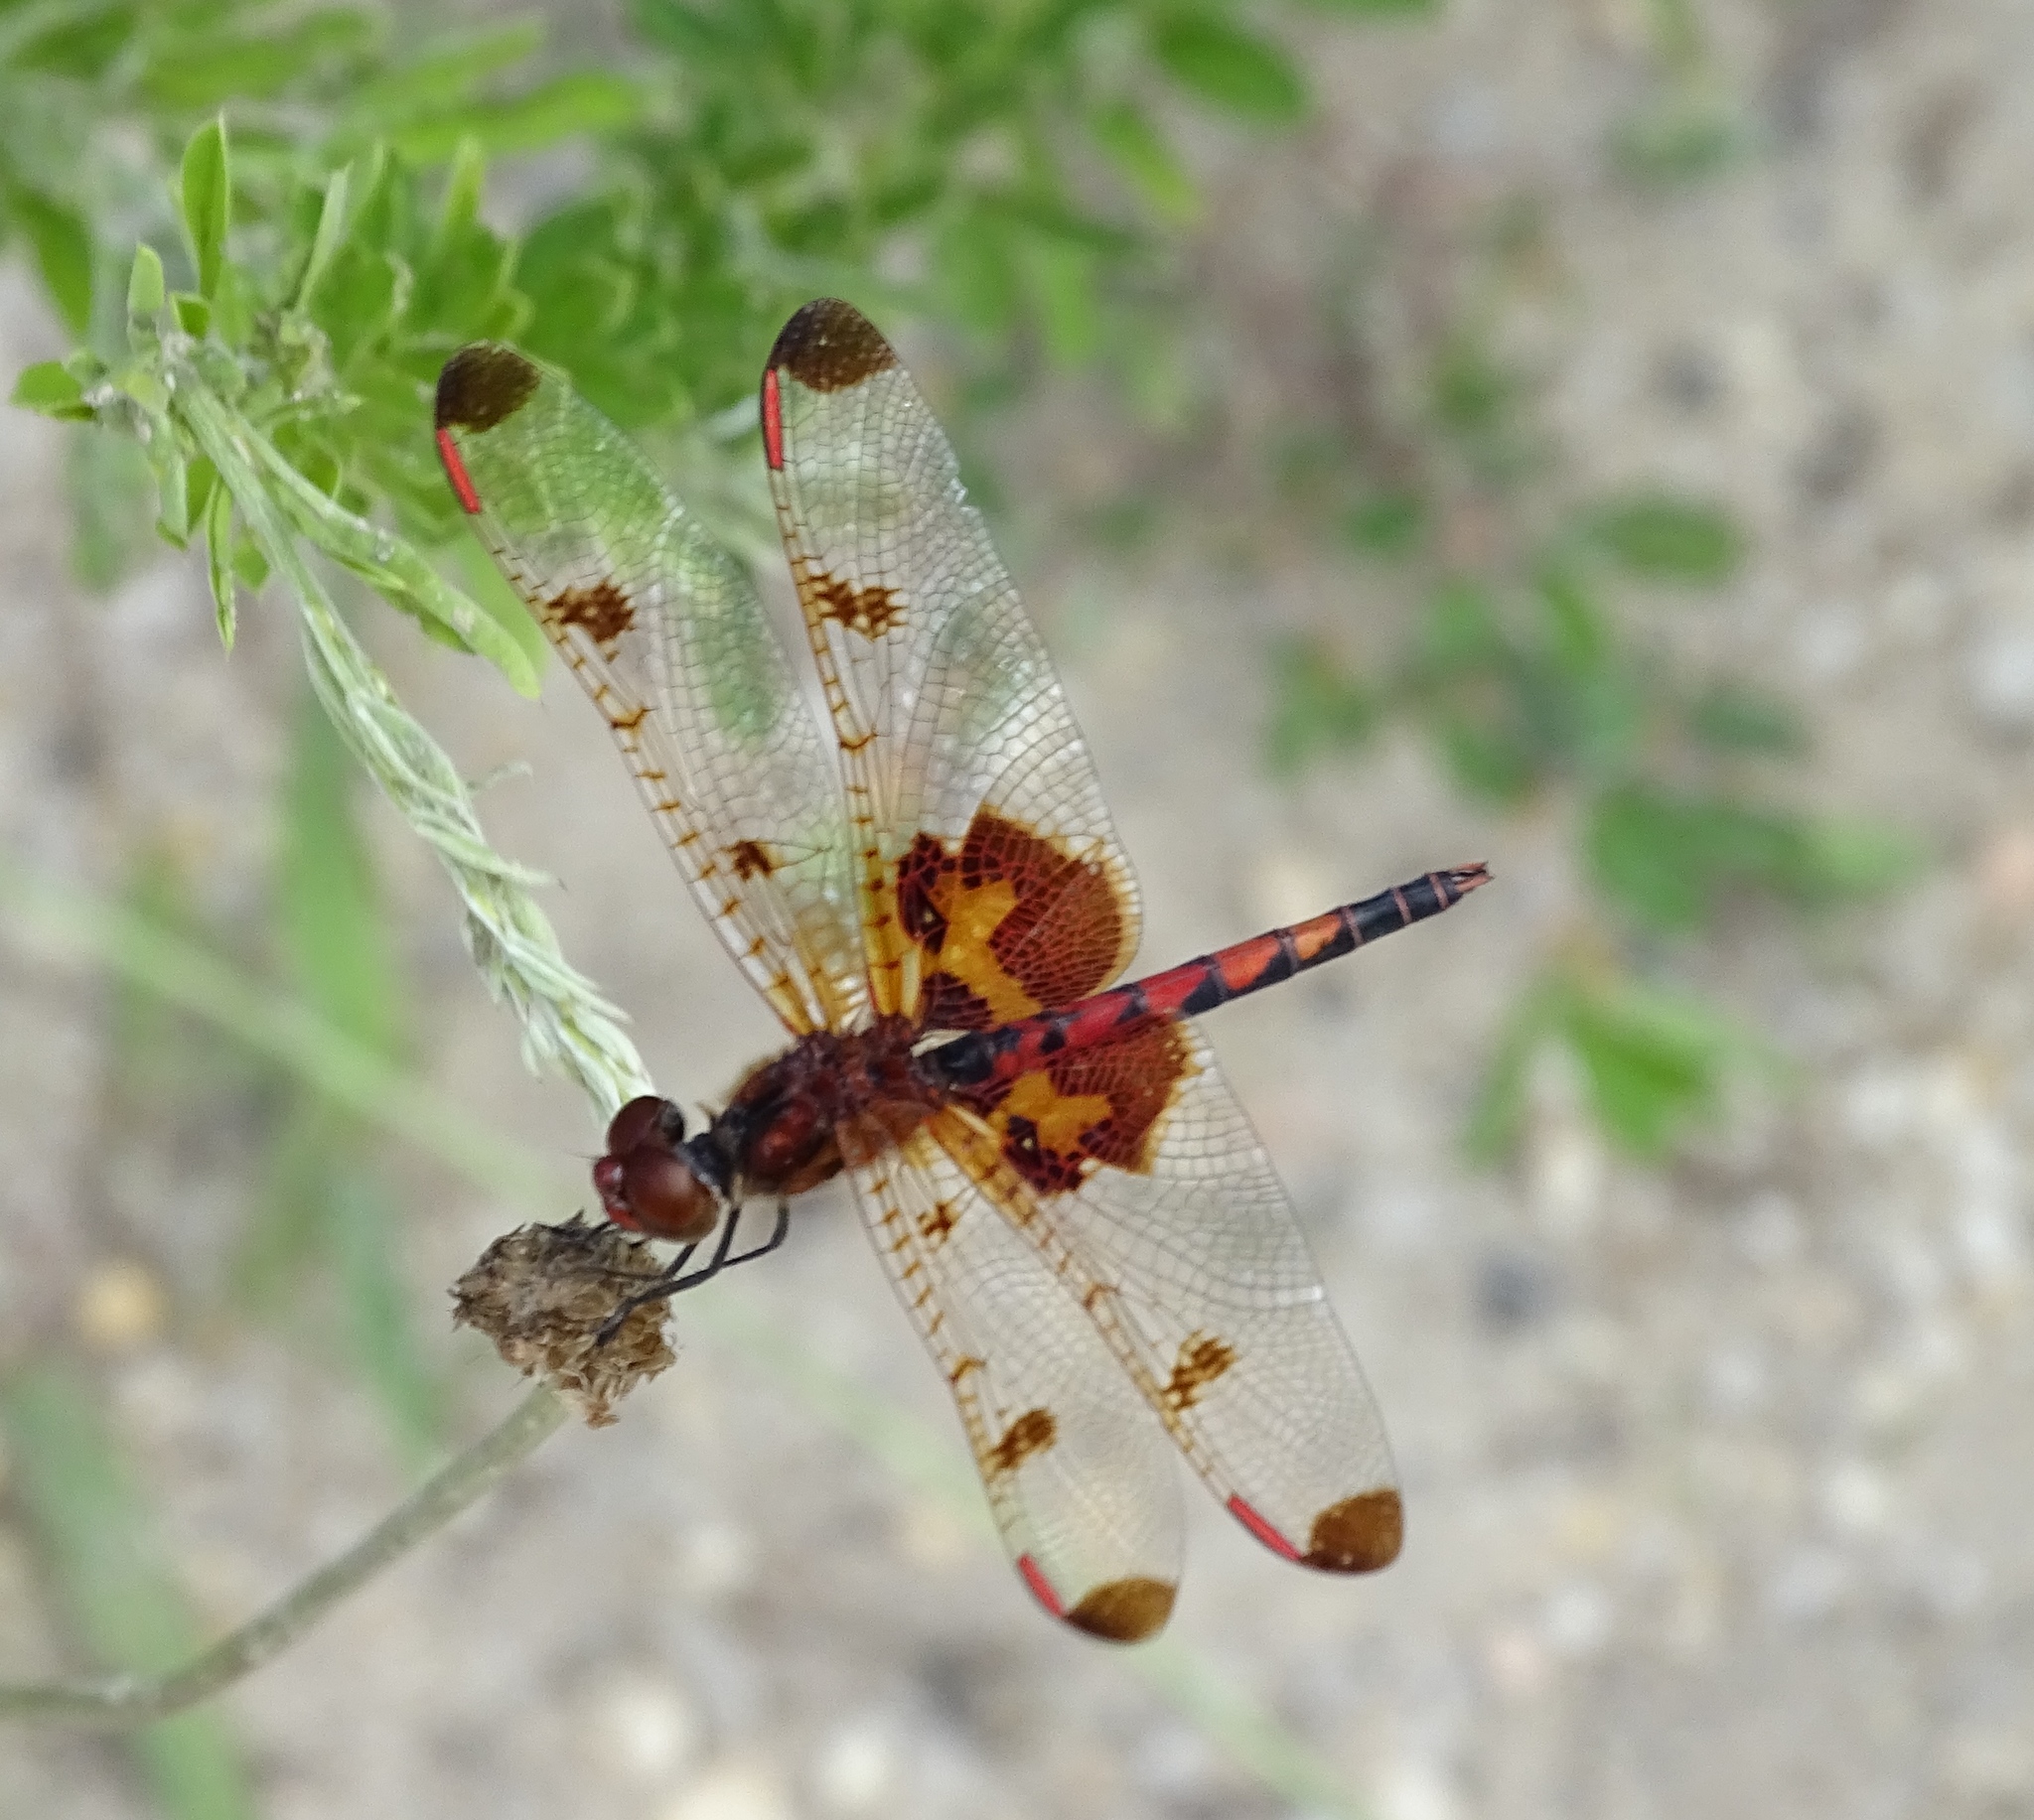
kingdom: Animalia
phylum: Arthropoda
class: Insecta
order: Odonata
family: Libellulidae
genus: Celithemis
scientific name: Celithemis elisa
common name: Calico pennant
